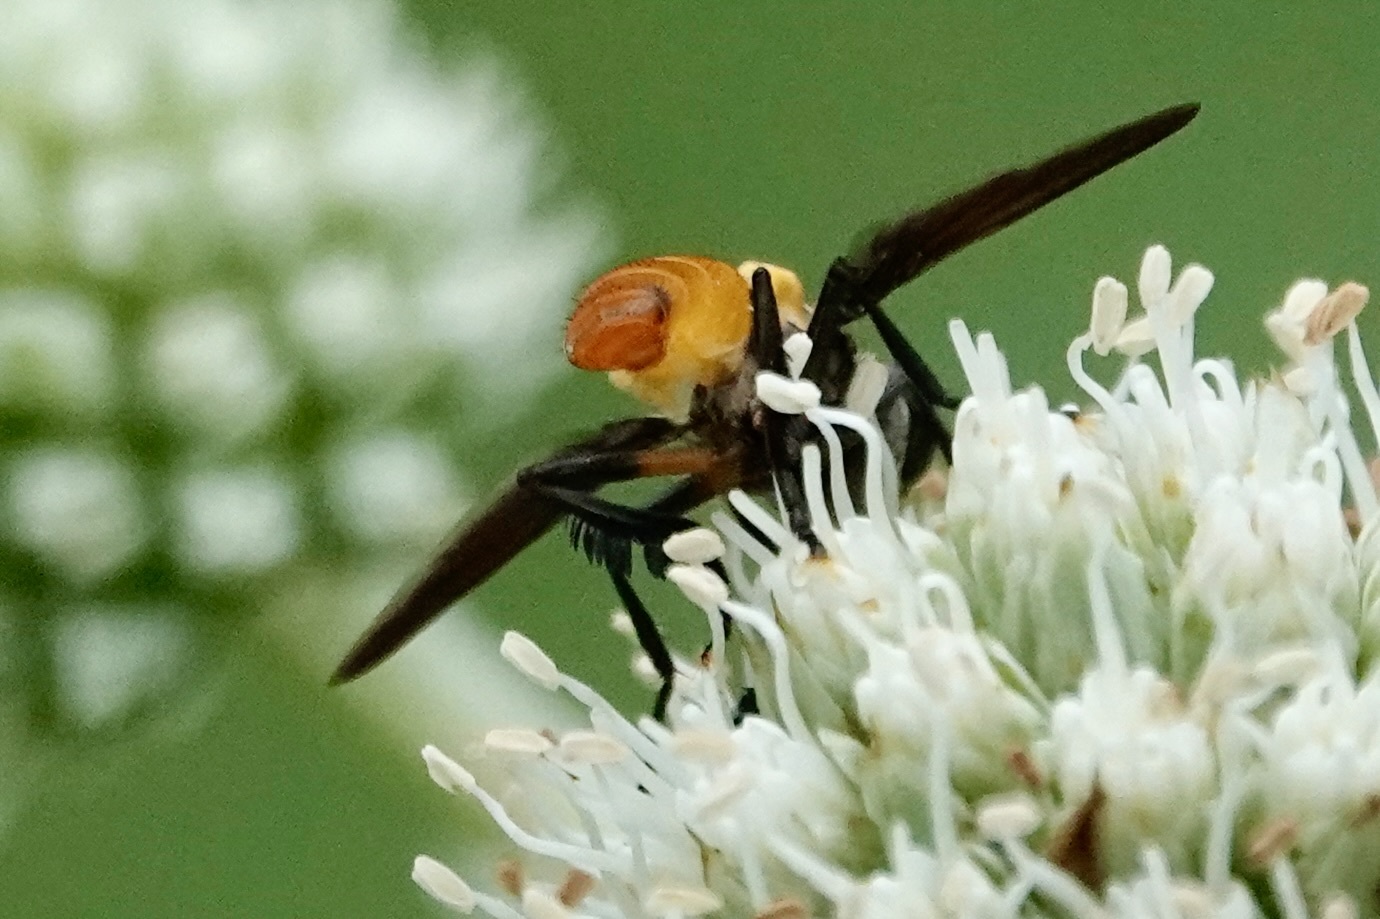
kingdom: Animalia
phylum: Arthropoda
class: Insecta
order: Diptera
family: Tachinidae
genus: Trichopoda
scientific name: Trichopoda pennipes
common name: Tachinid fly
